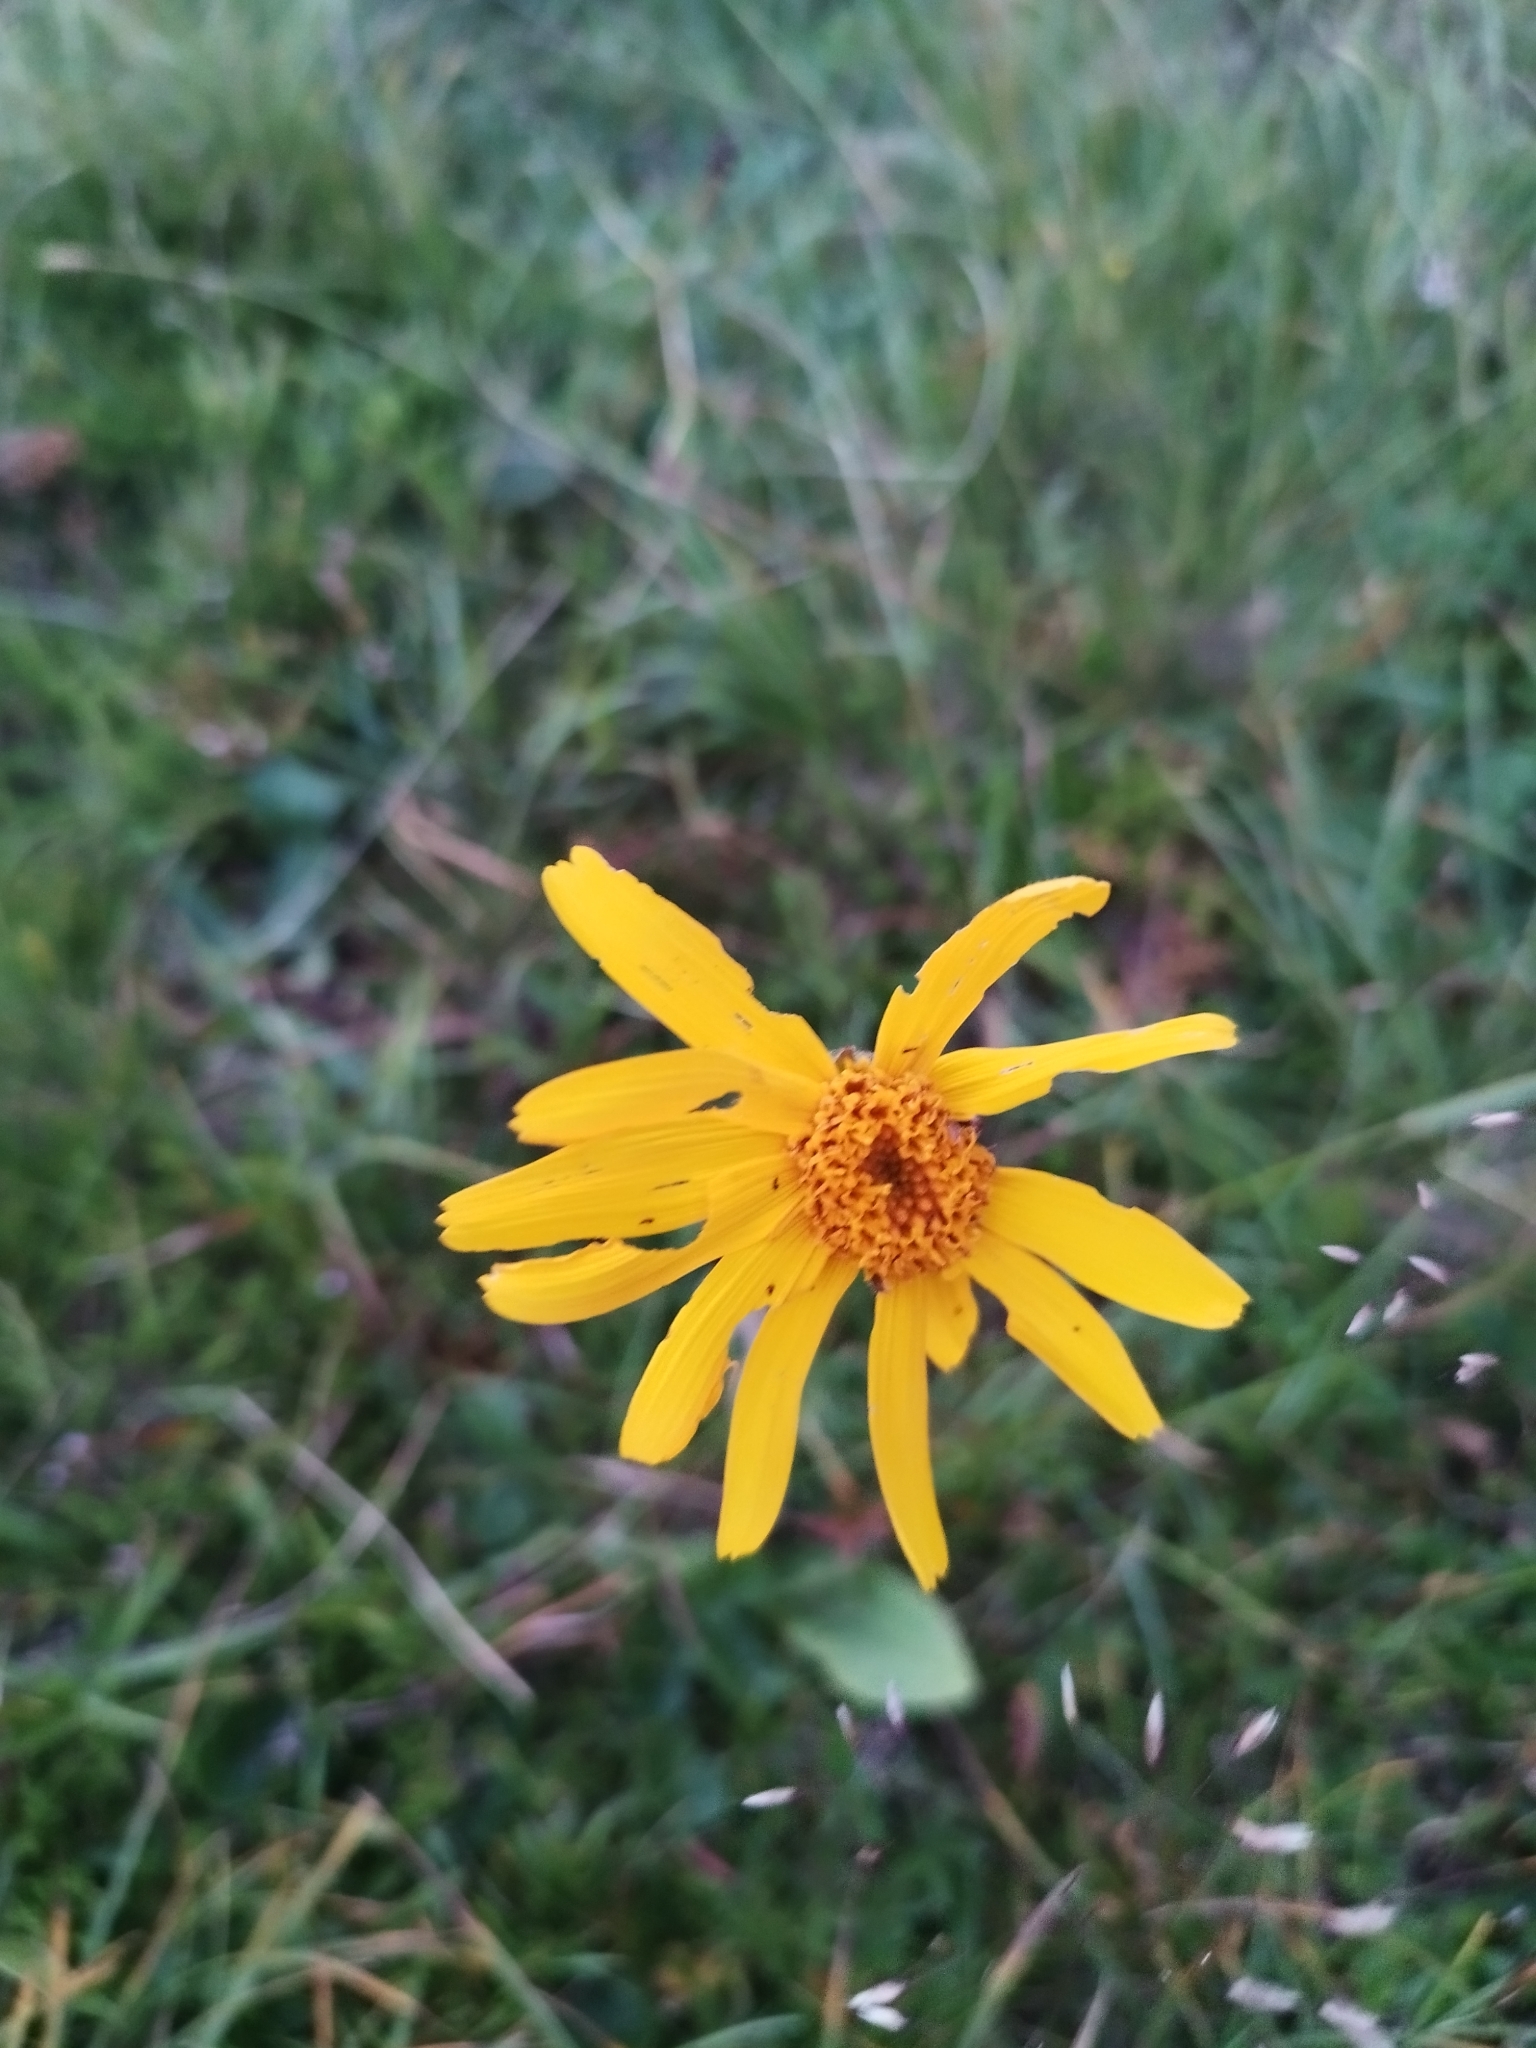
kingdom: Plantae
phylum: Tracheophyta
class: Magnoliopsida
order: Asterales
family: Asteraceae
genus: Arnica
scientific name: Arnica montana
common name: Leopard's bane
